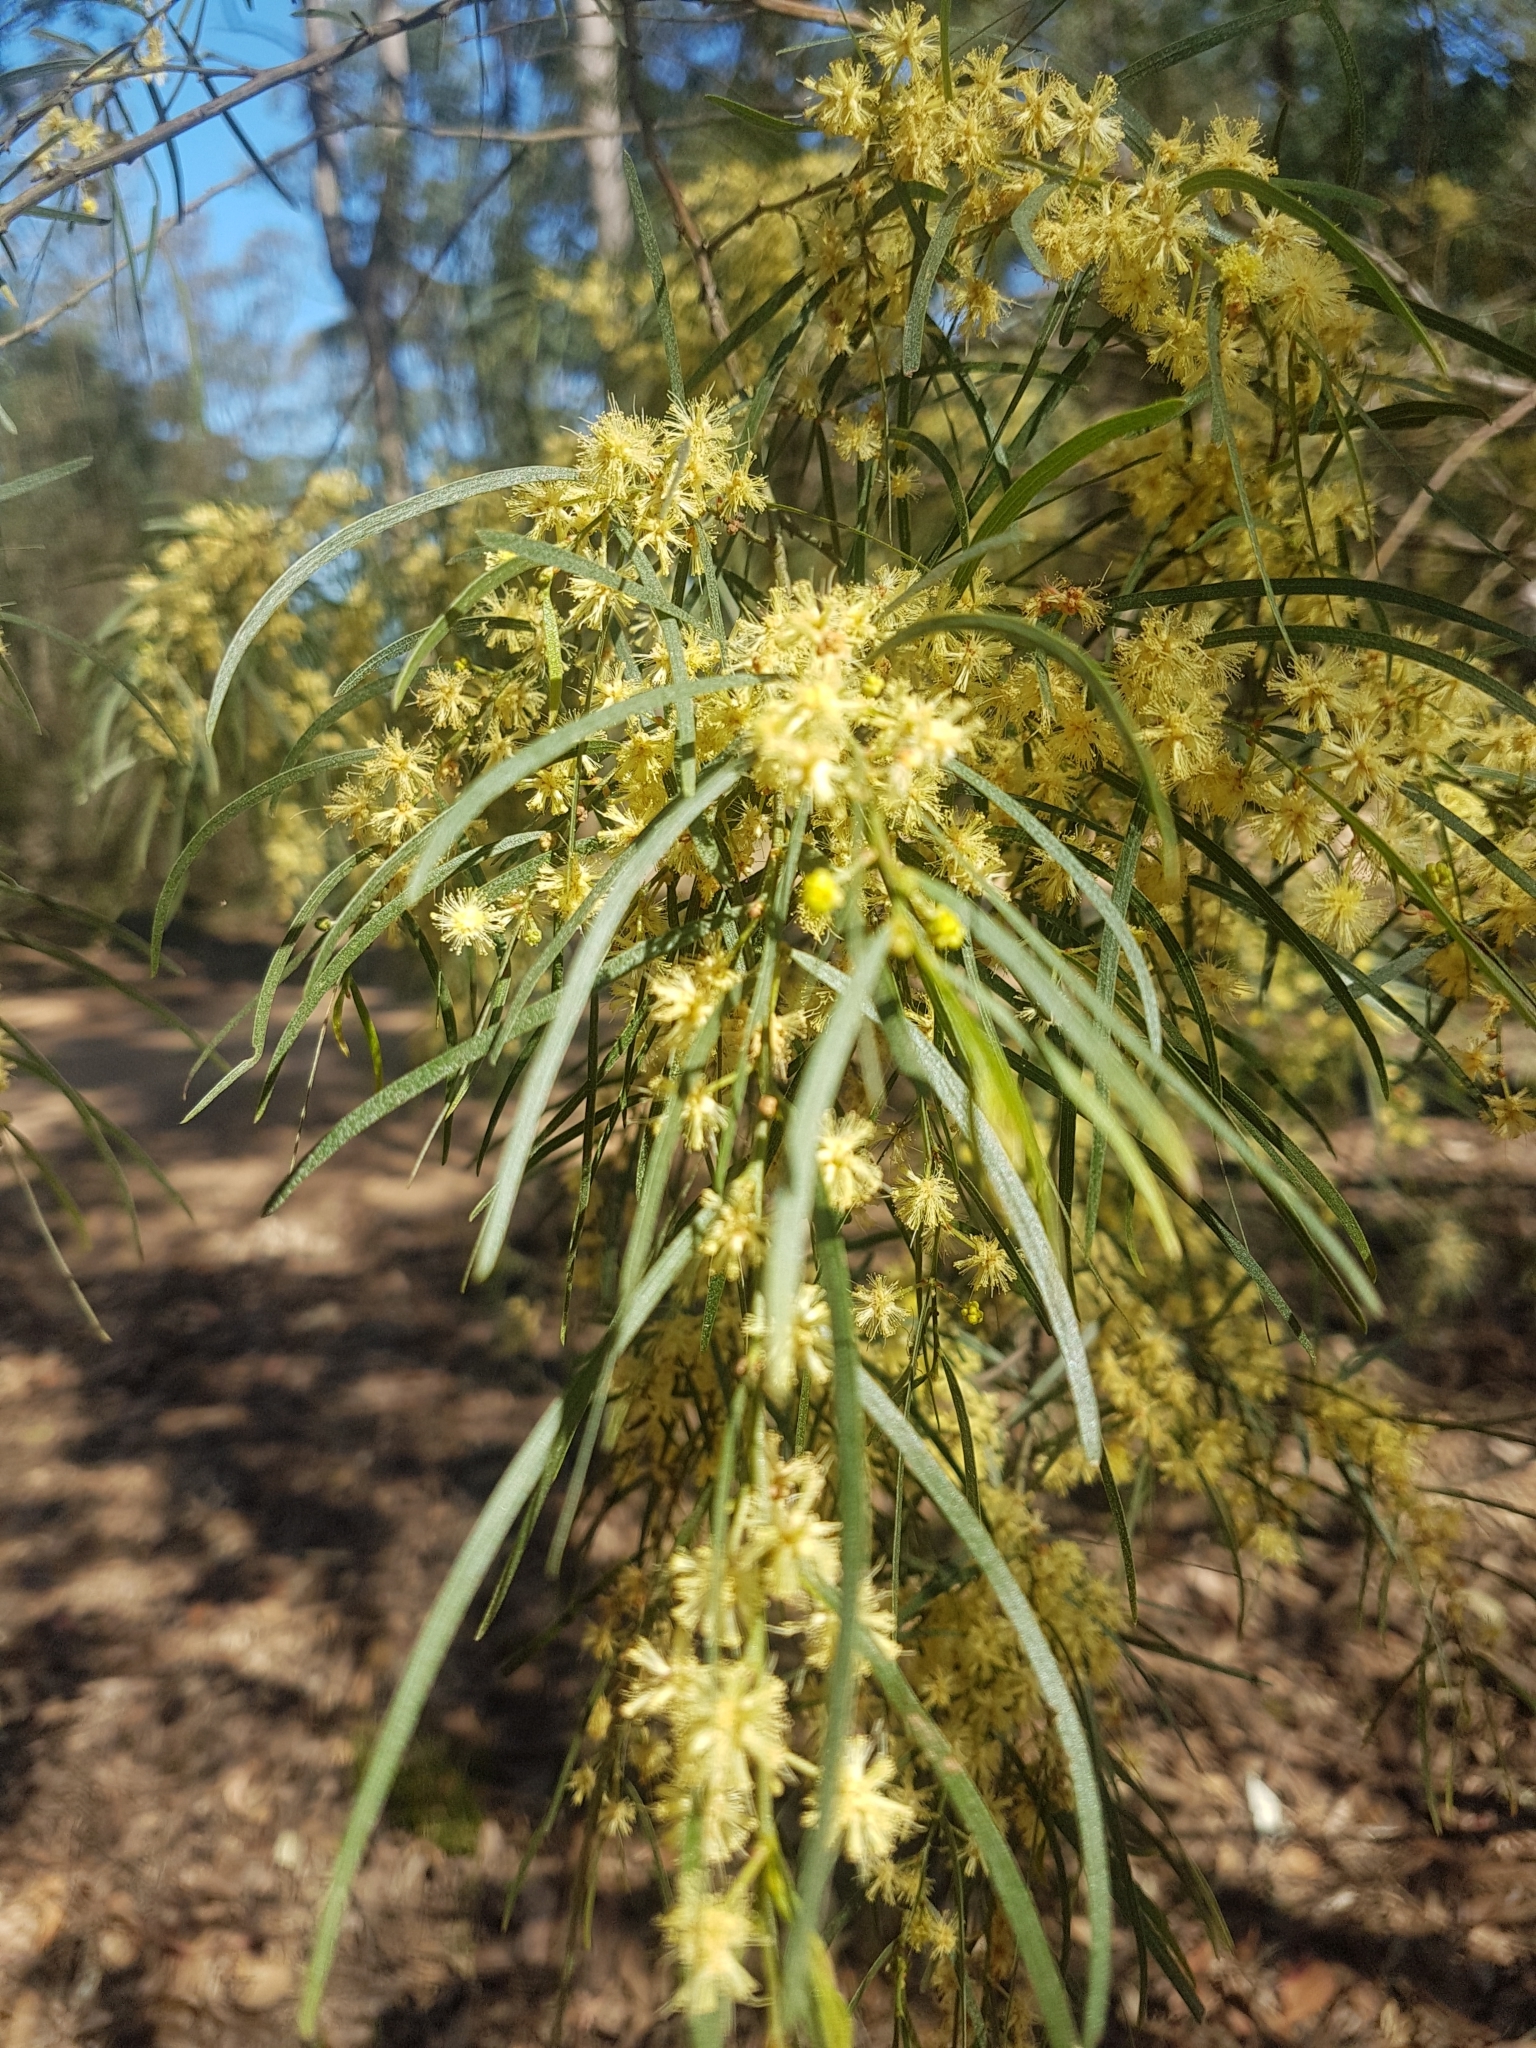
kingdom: Plantae
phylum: Tracheophyta
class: Magnoliopsida
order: Fabales
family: Fabaceae
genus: Acacia
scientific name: Acacia cognata
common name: Narrow-leaf bower wattle
